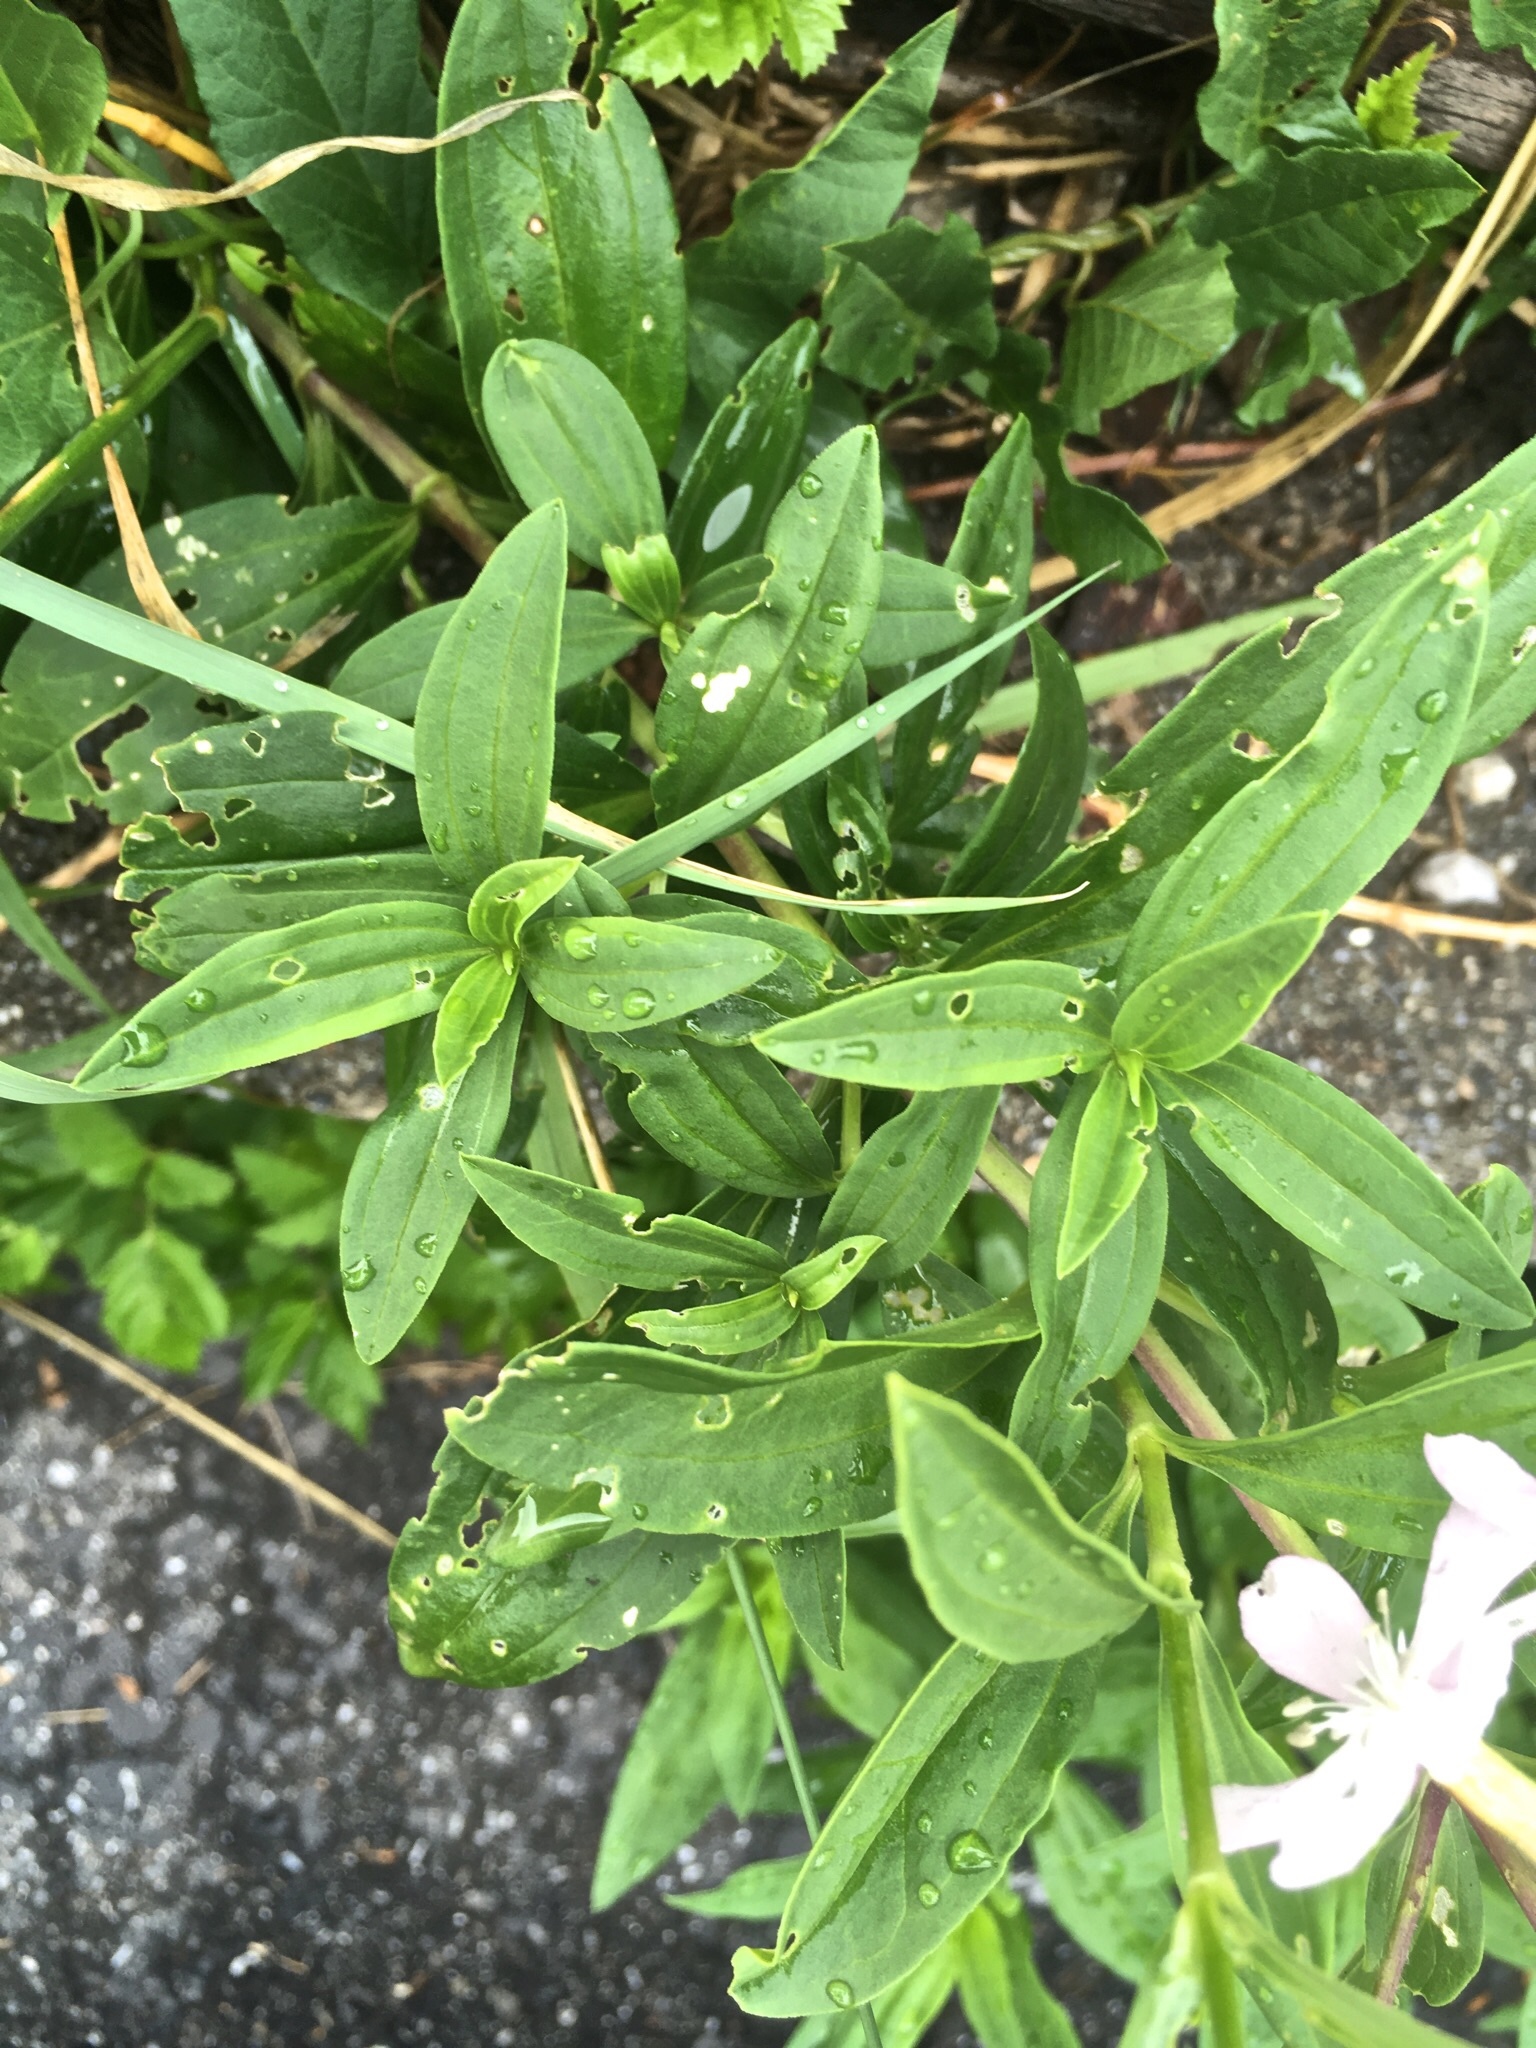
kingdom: Plantae
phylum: Tracheophyta
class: Magnoliopsida
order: Caryophyllales
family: Caryophyllaceae
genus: Saponaria
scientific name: Saponaria officinalis
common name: Soapwort
